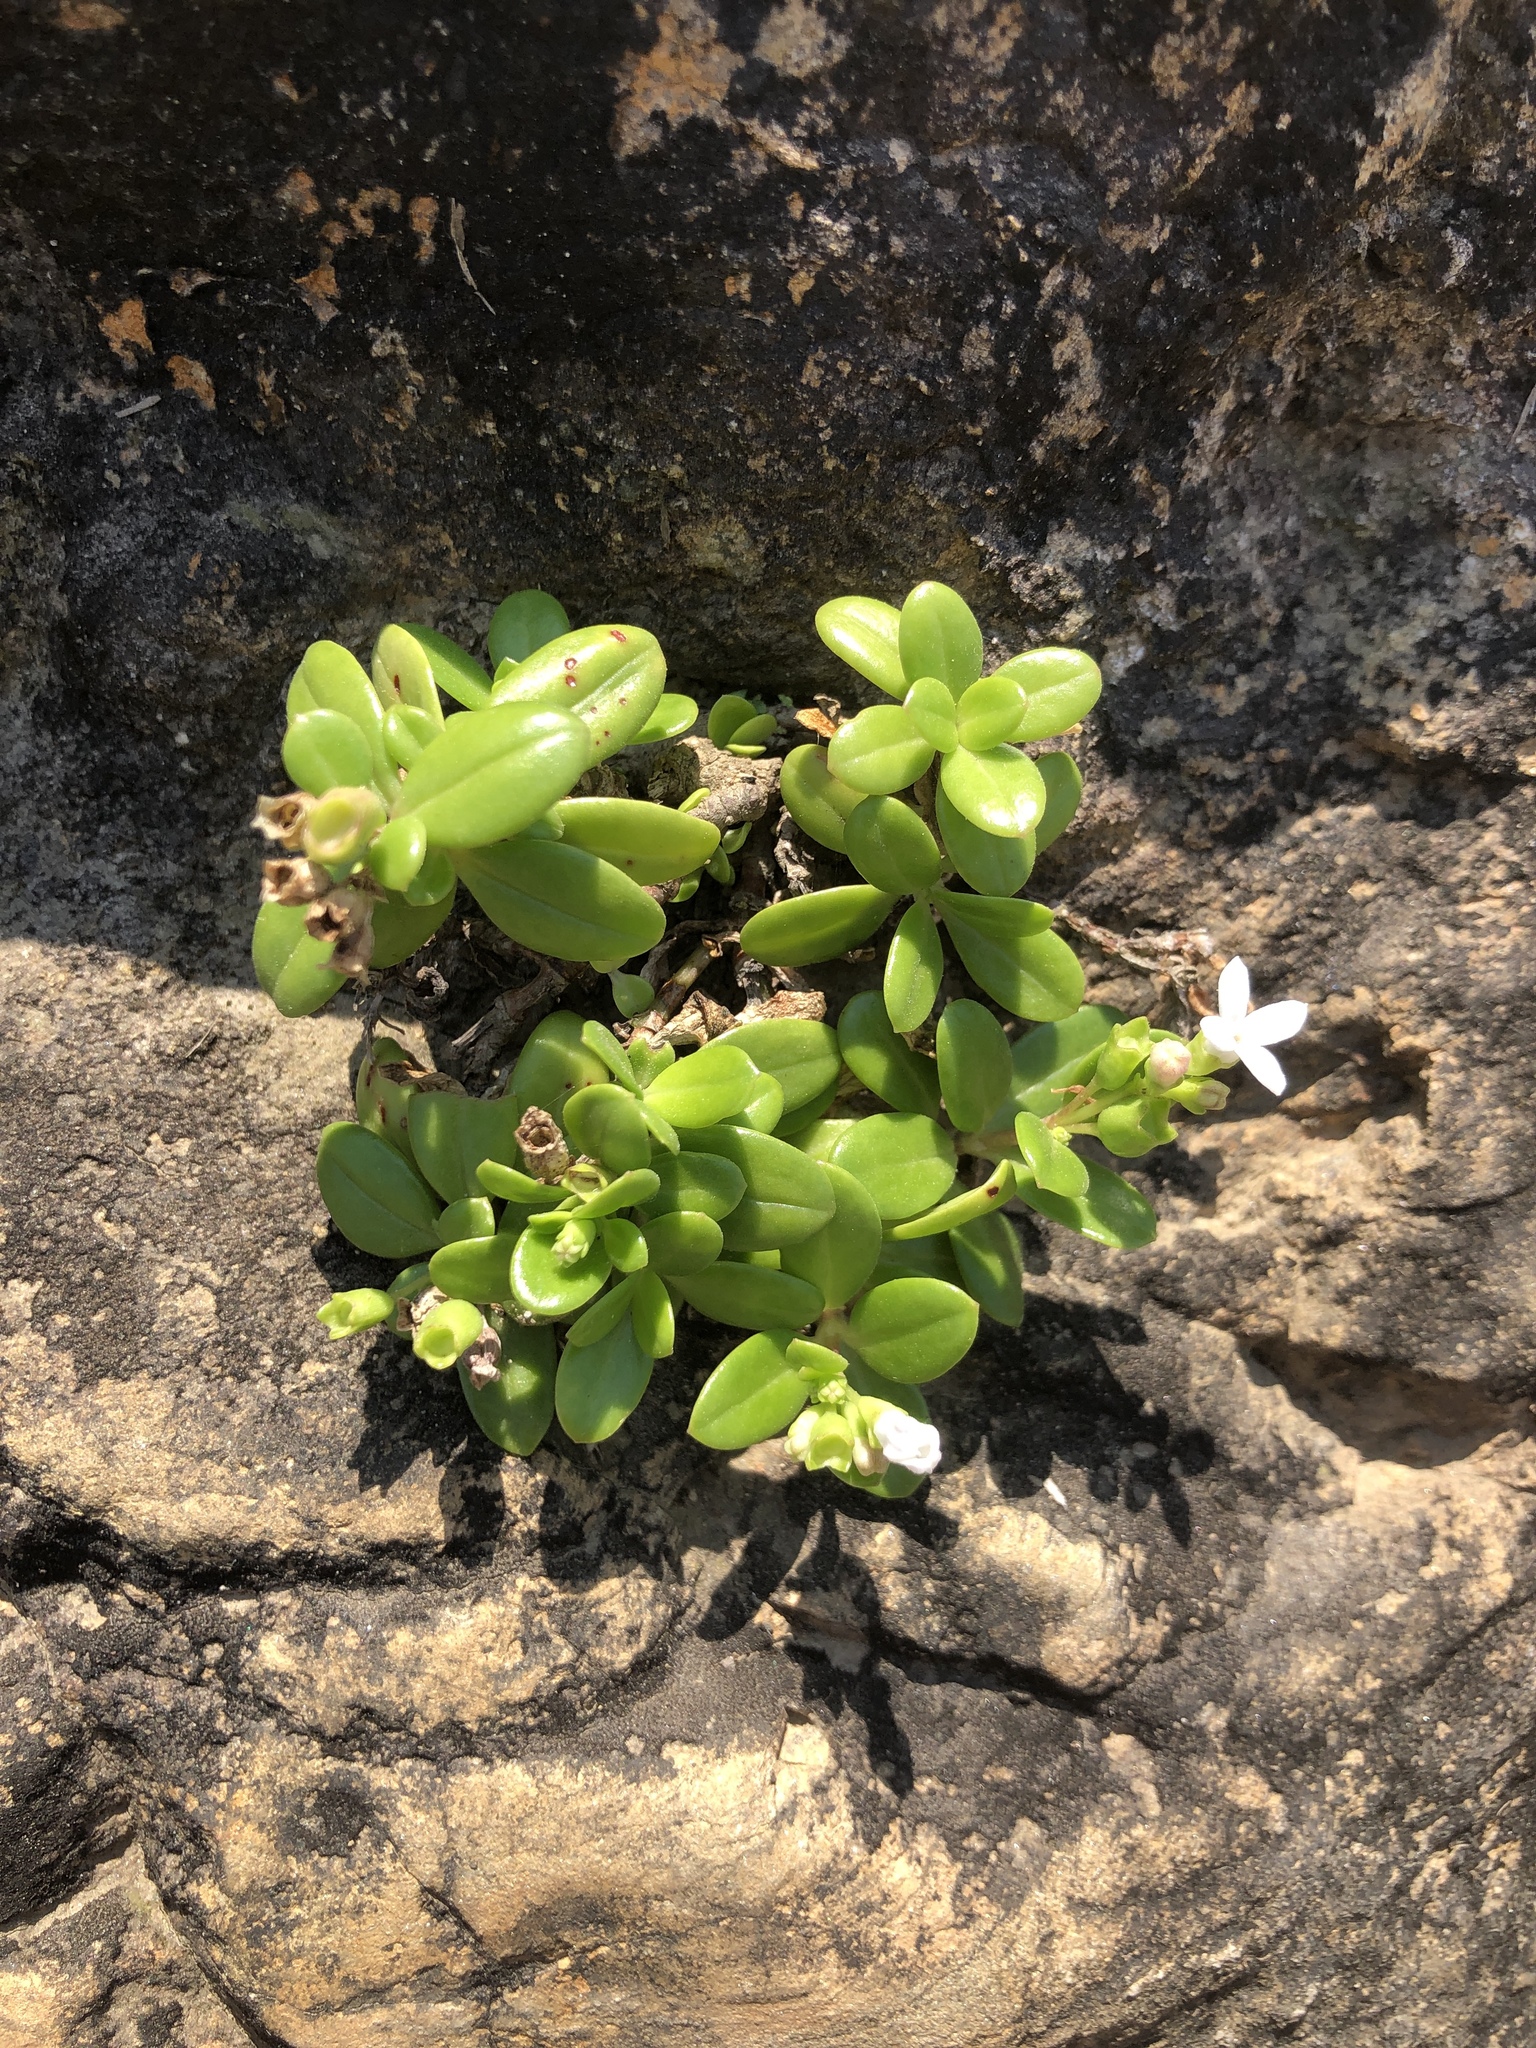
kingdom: Plantae
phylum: Tracheophyta
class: Magnoliopsida
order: Gentianales
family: Rubiaceae
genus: Leptopetalum
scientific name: Leptopetalum strigulosum
